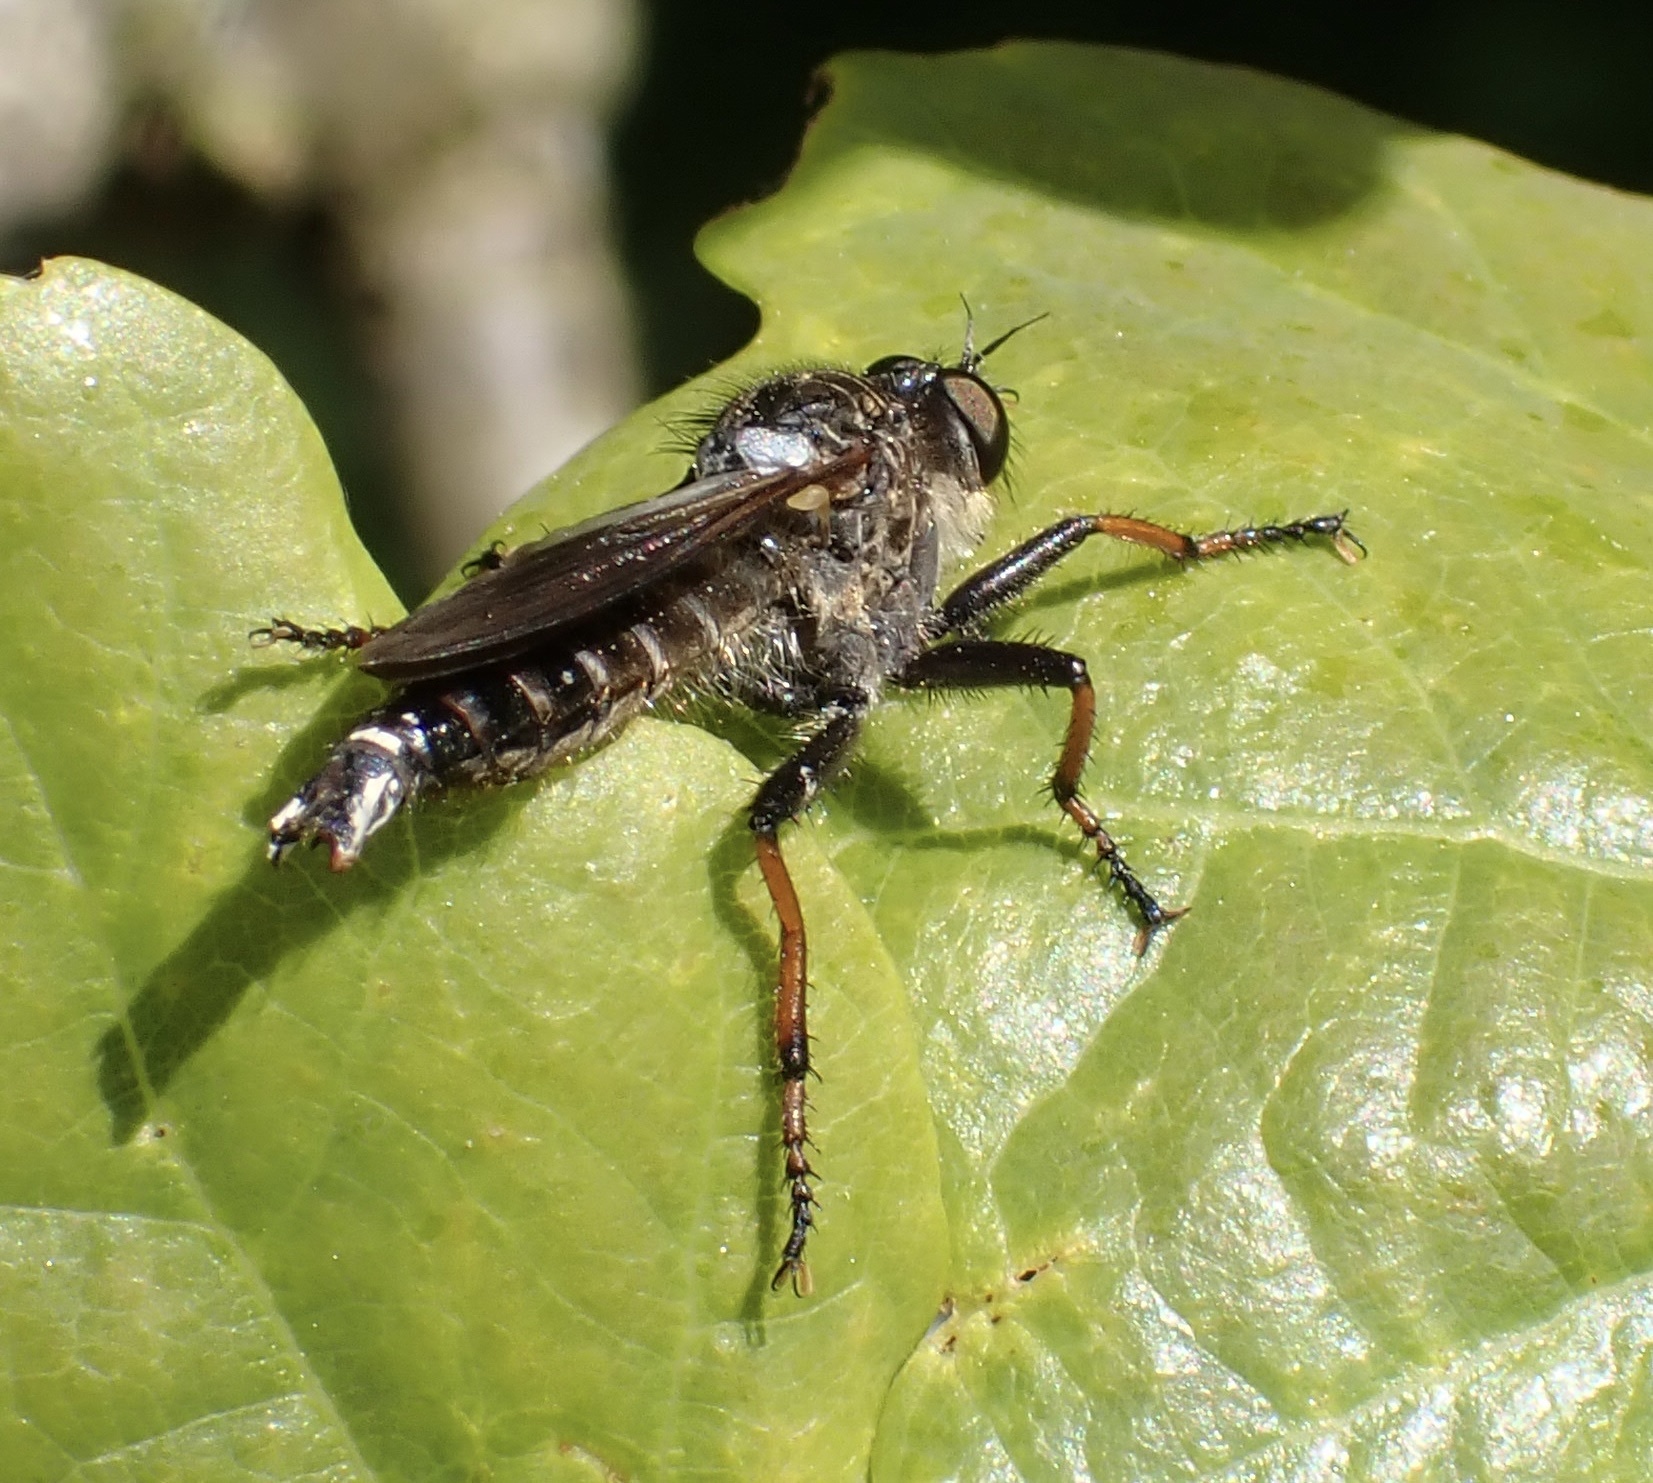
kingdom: Animalia
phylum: Arthropoda
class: Insecta
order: Diptera
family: Asilidae
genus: Pamponerus
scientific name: Pamponerus germanicus
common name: Pied-winged robberfly
